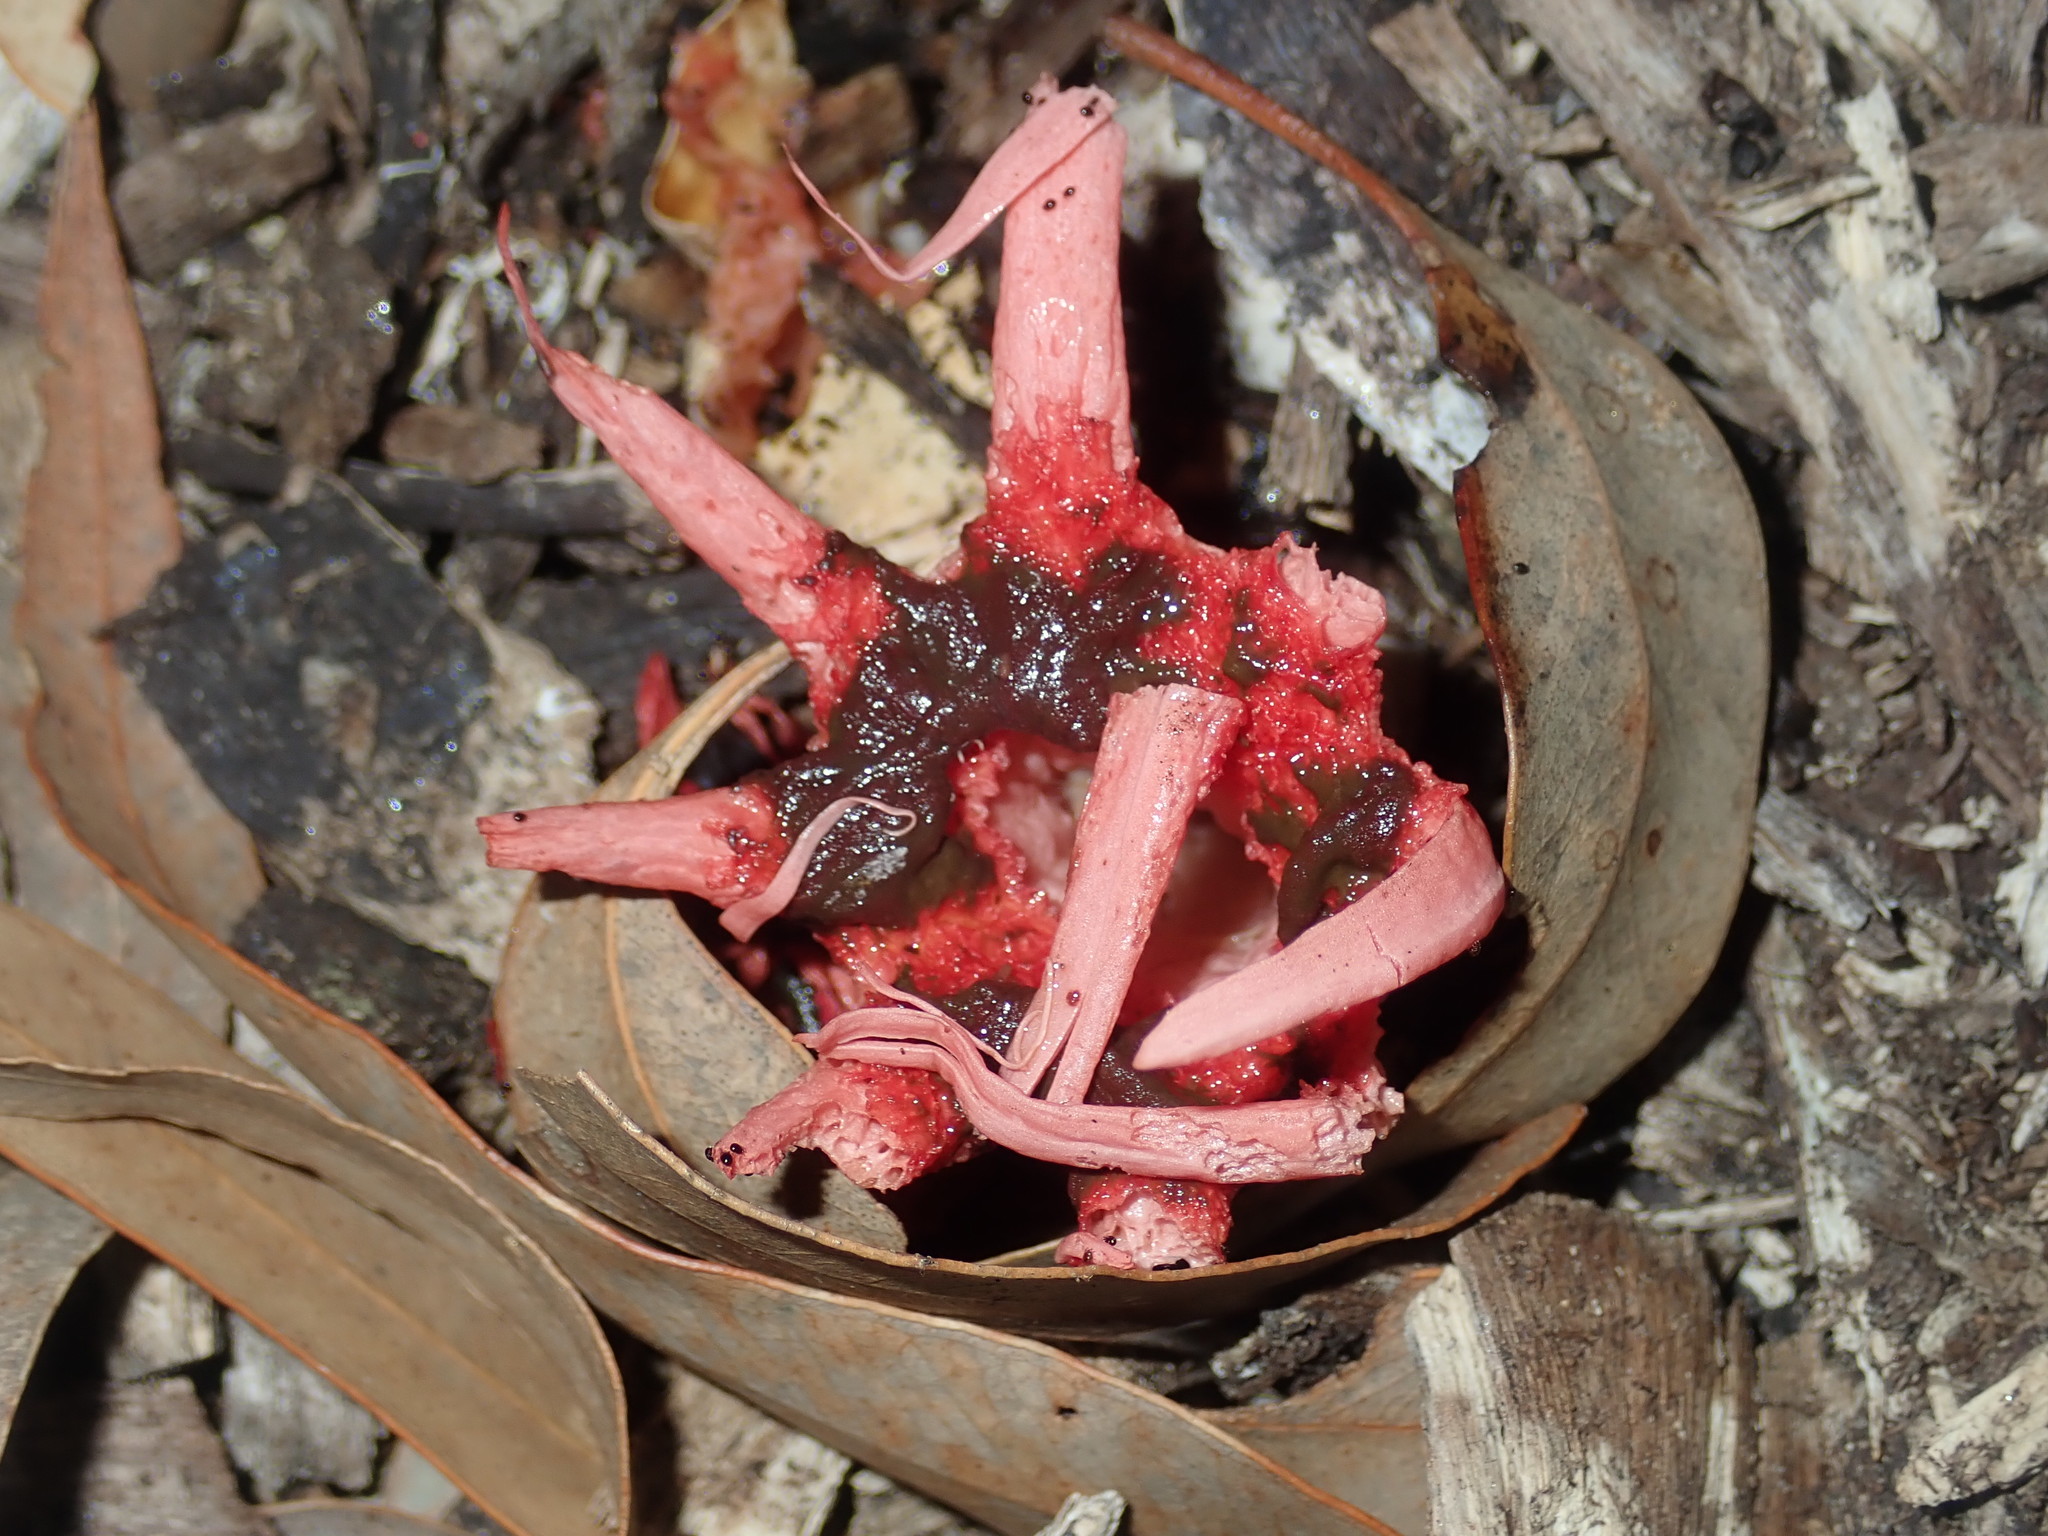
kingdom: Fungi
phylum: Basidiomycota
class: Agaricomycetes
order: Phallales
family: Phallaceae
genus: Aseroe
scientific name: Aseroe rubra
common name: Starfish fungus
